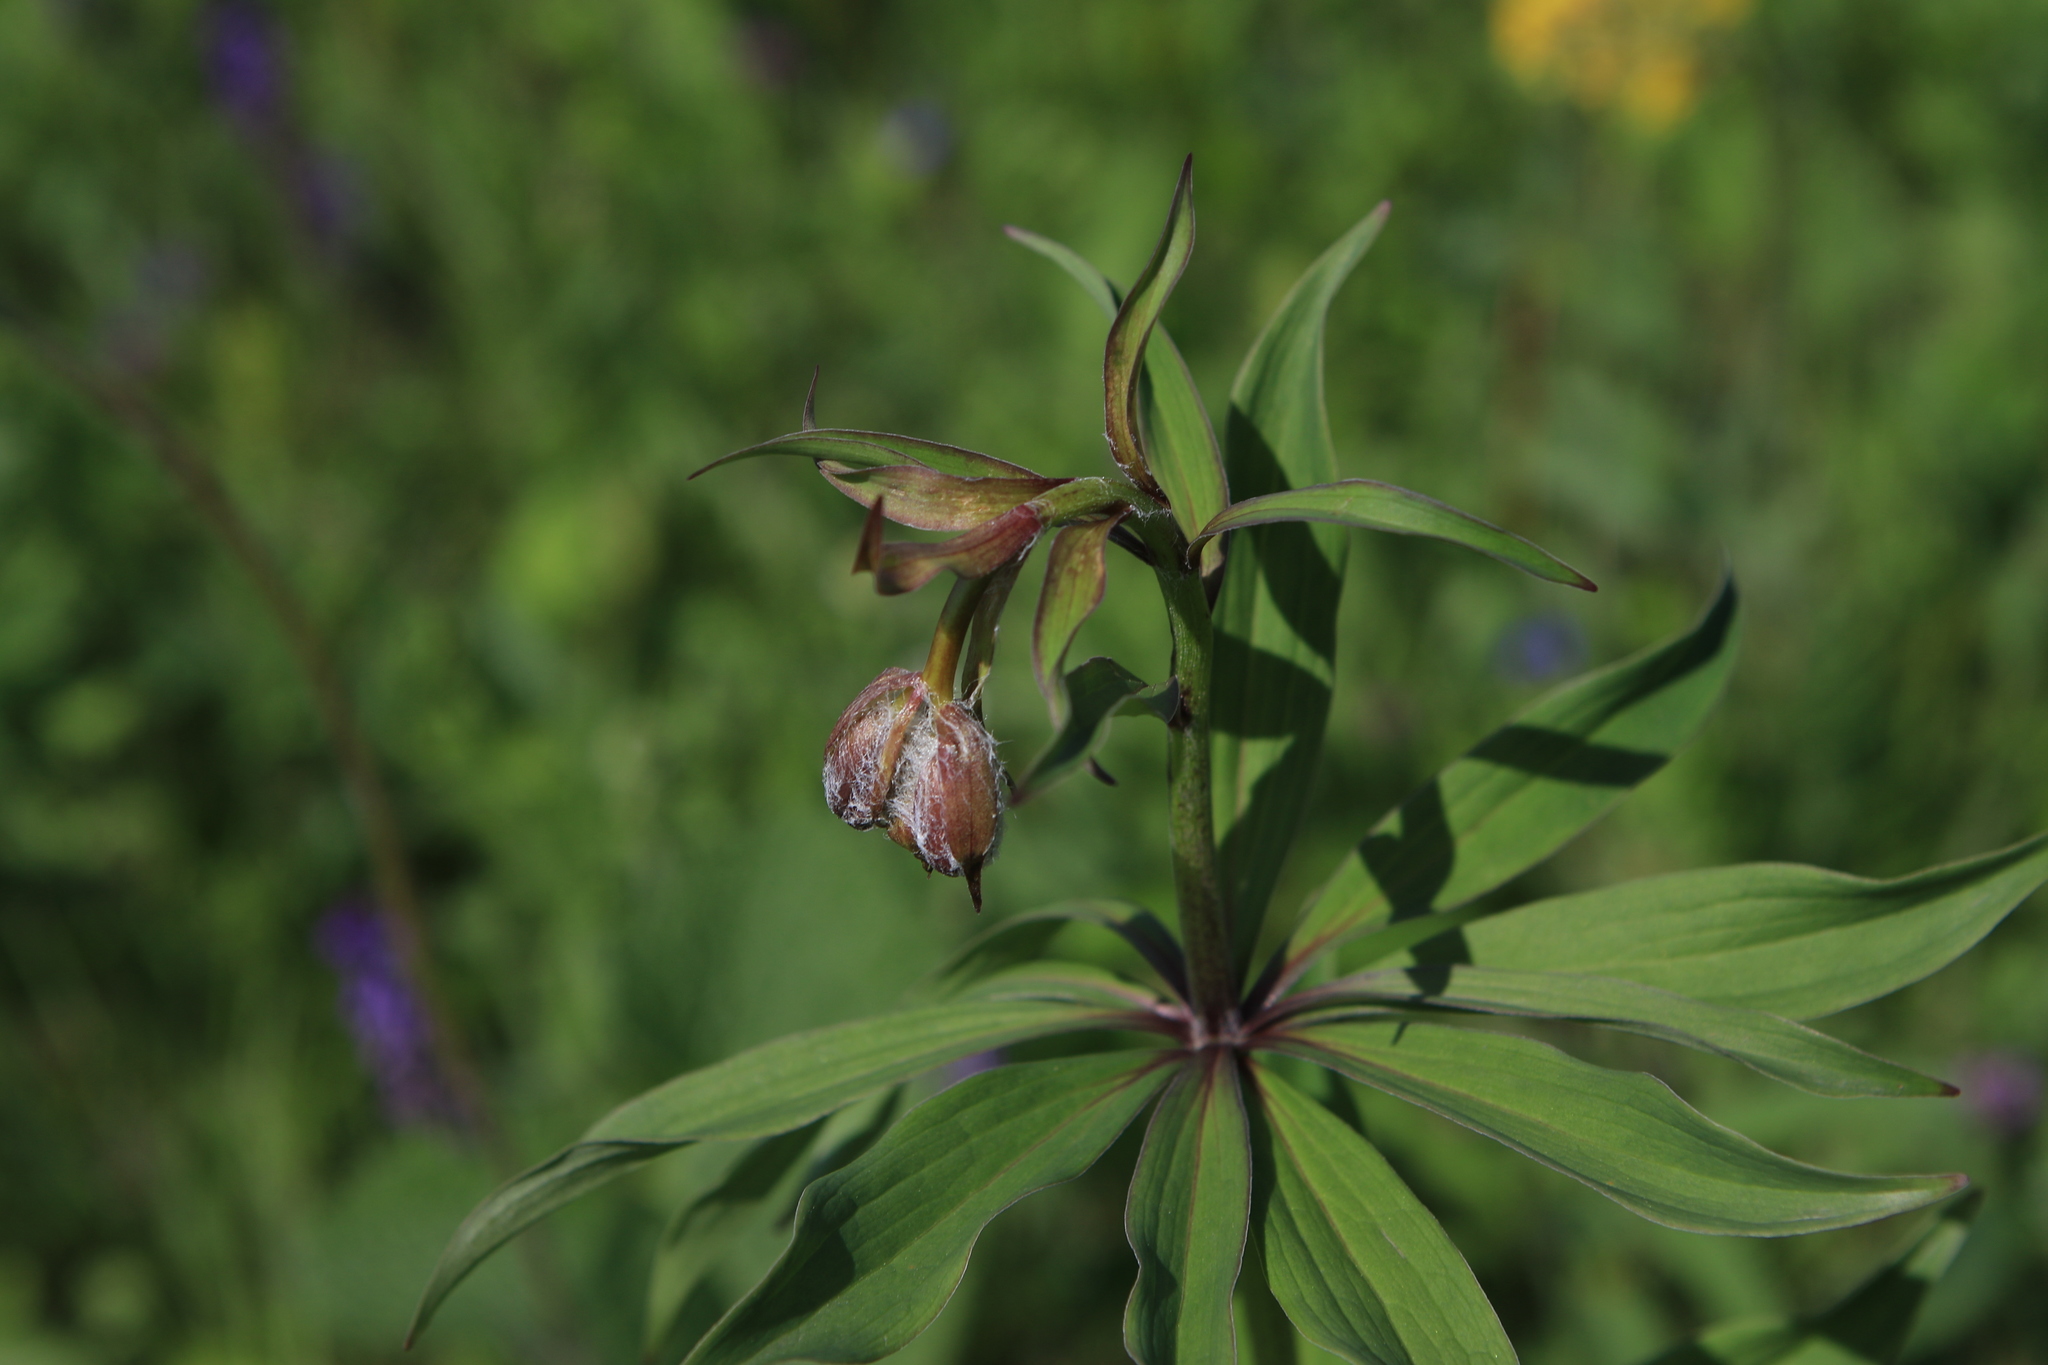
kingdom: Plantae
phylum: Tracheophyta
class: Liliopsida
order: Liliales
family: Liliaceae
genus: Lilium
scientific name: Lilium martagon
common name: Martagon lily
